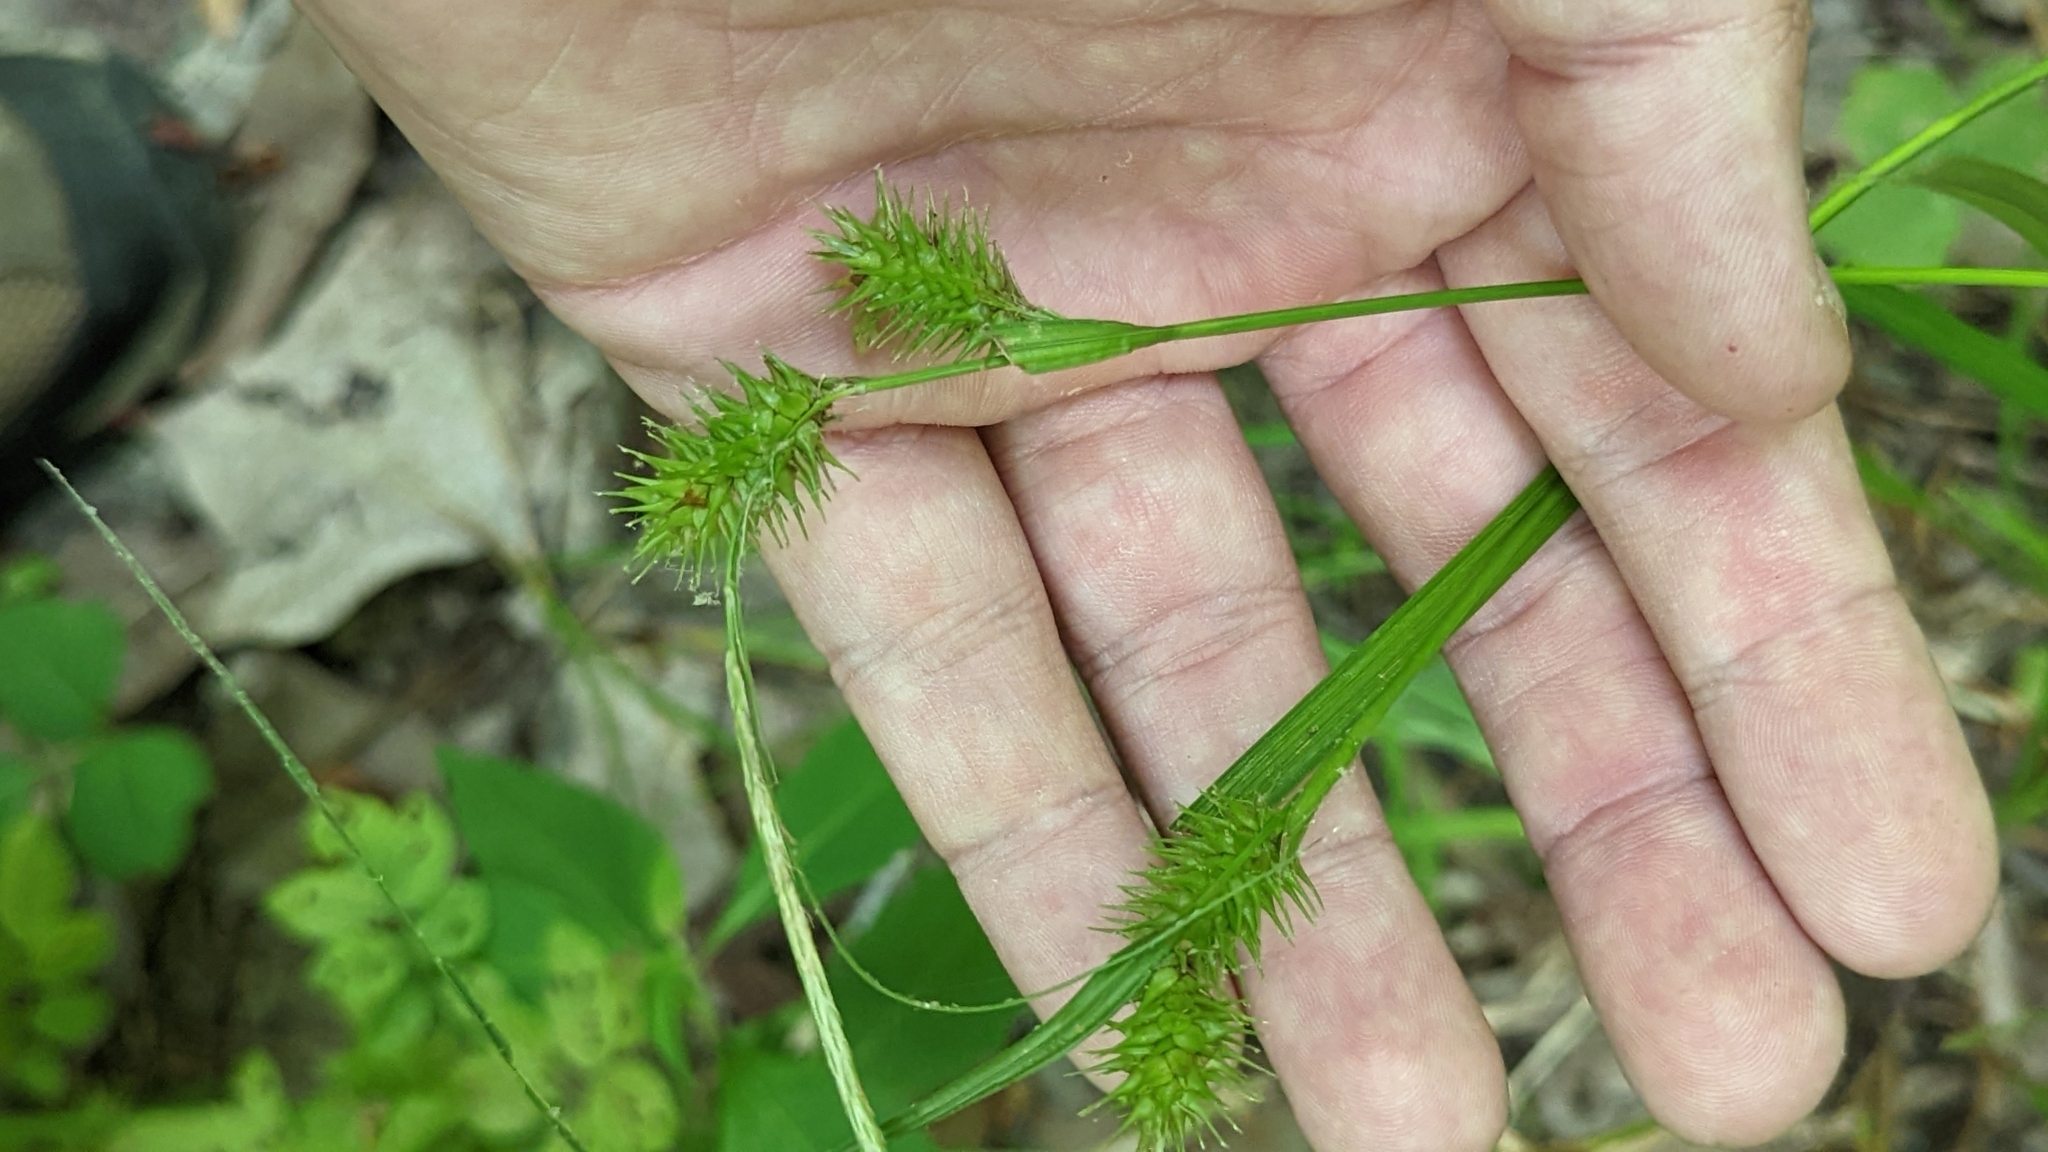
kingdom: Plantae
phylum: Tracheophyta
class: Liliopsida
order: Poales
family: Cyperaceae
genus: Carex
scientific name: Carex lurida
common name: Sallow sedge
